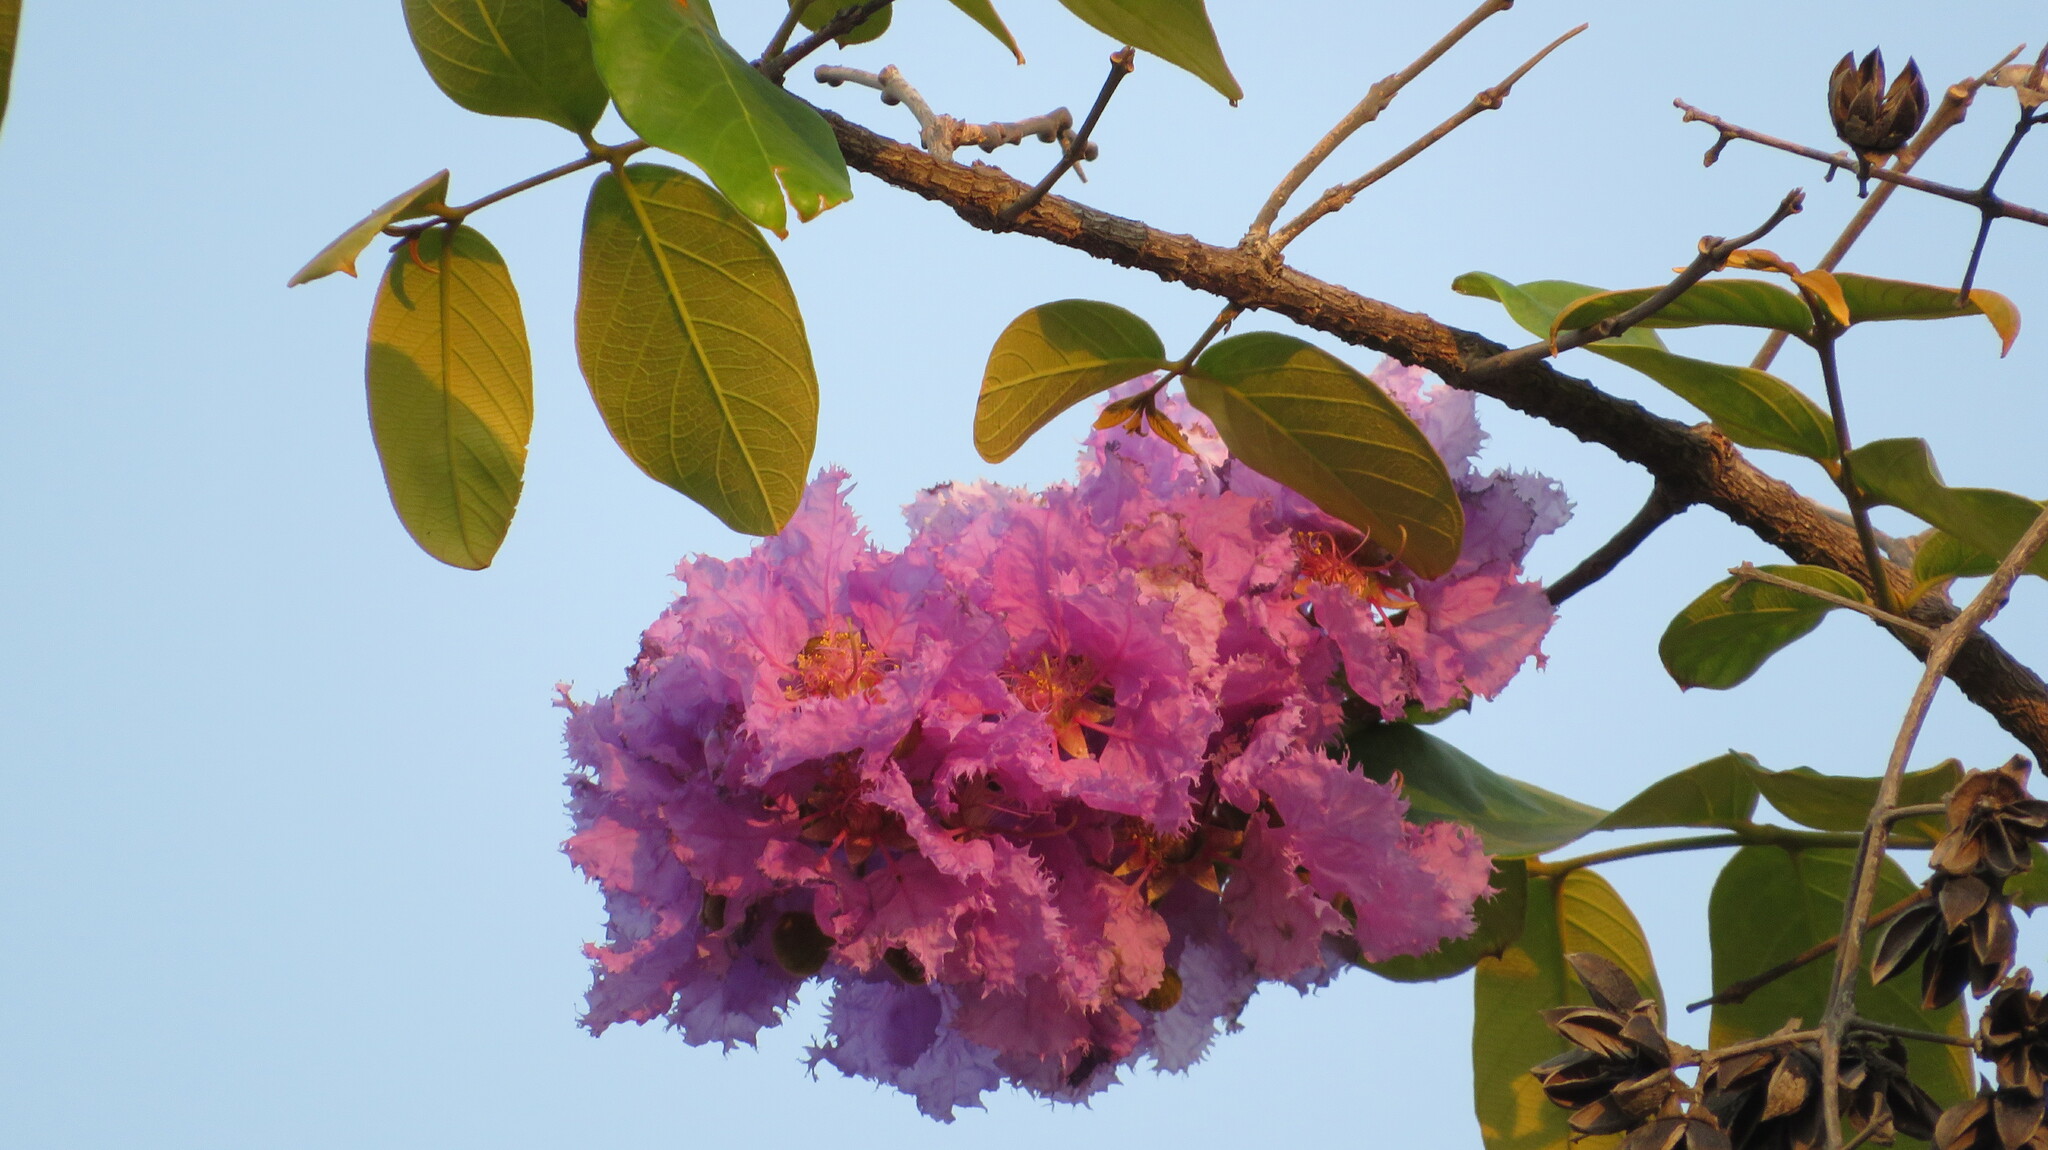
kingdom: Plantae
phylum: Tracheophyta
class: Magnoliopsida
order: Myrtales
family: Lythraceae
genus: Lagerstroemia
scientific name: Lagerstroemia speciosa
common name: Queen's crape-myrtle
